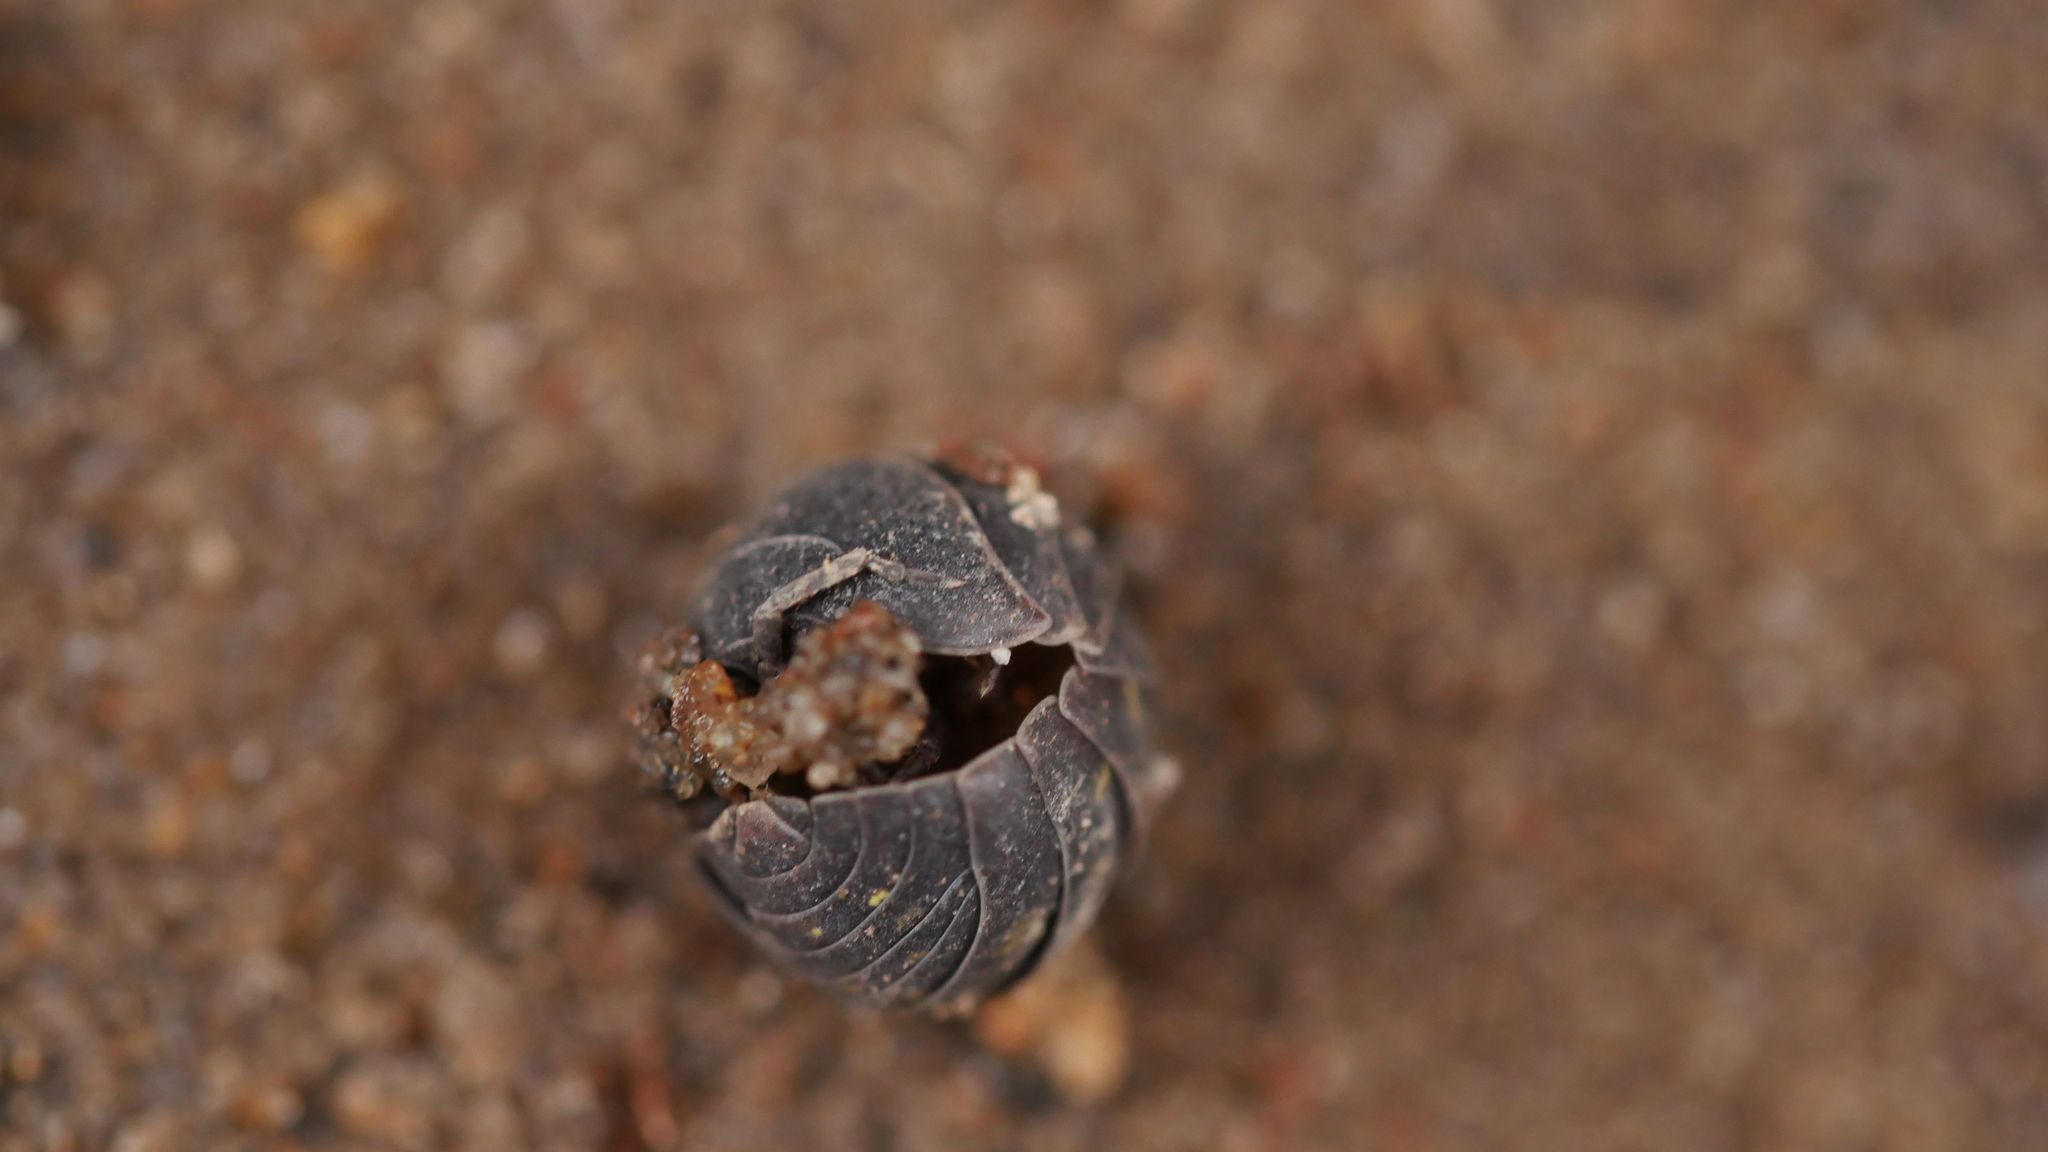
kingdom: Animalia
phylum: Arthropoda
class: Malacostraca
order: Isopoda
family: Armadillidiidae
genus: Armadillidium
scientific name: Armadillidium vulgare
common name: Common pill woodlouse
